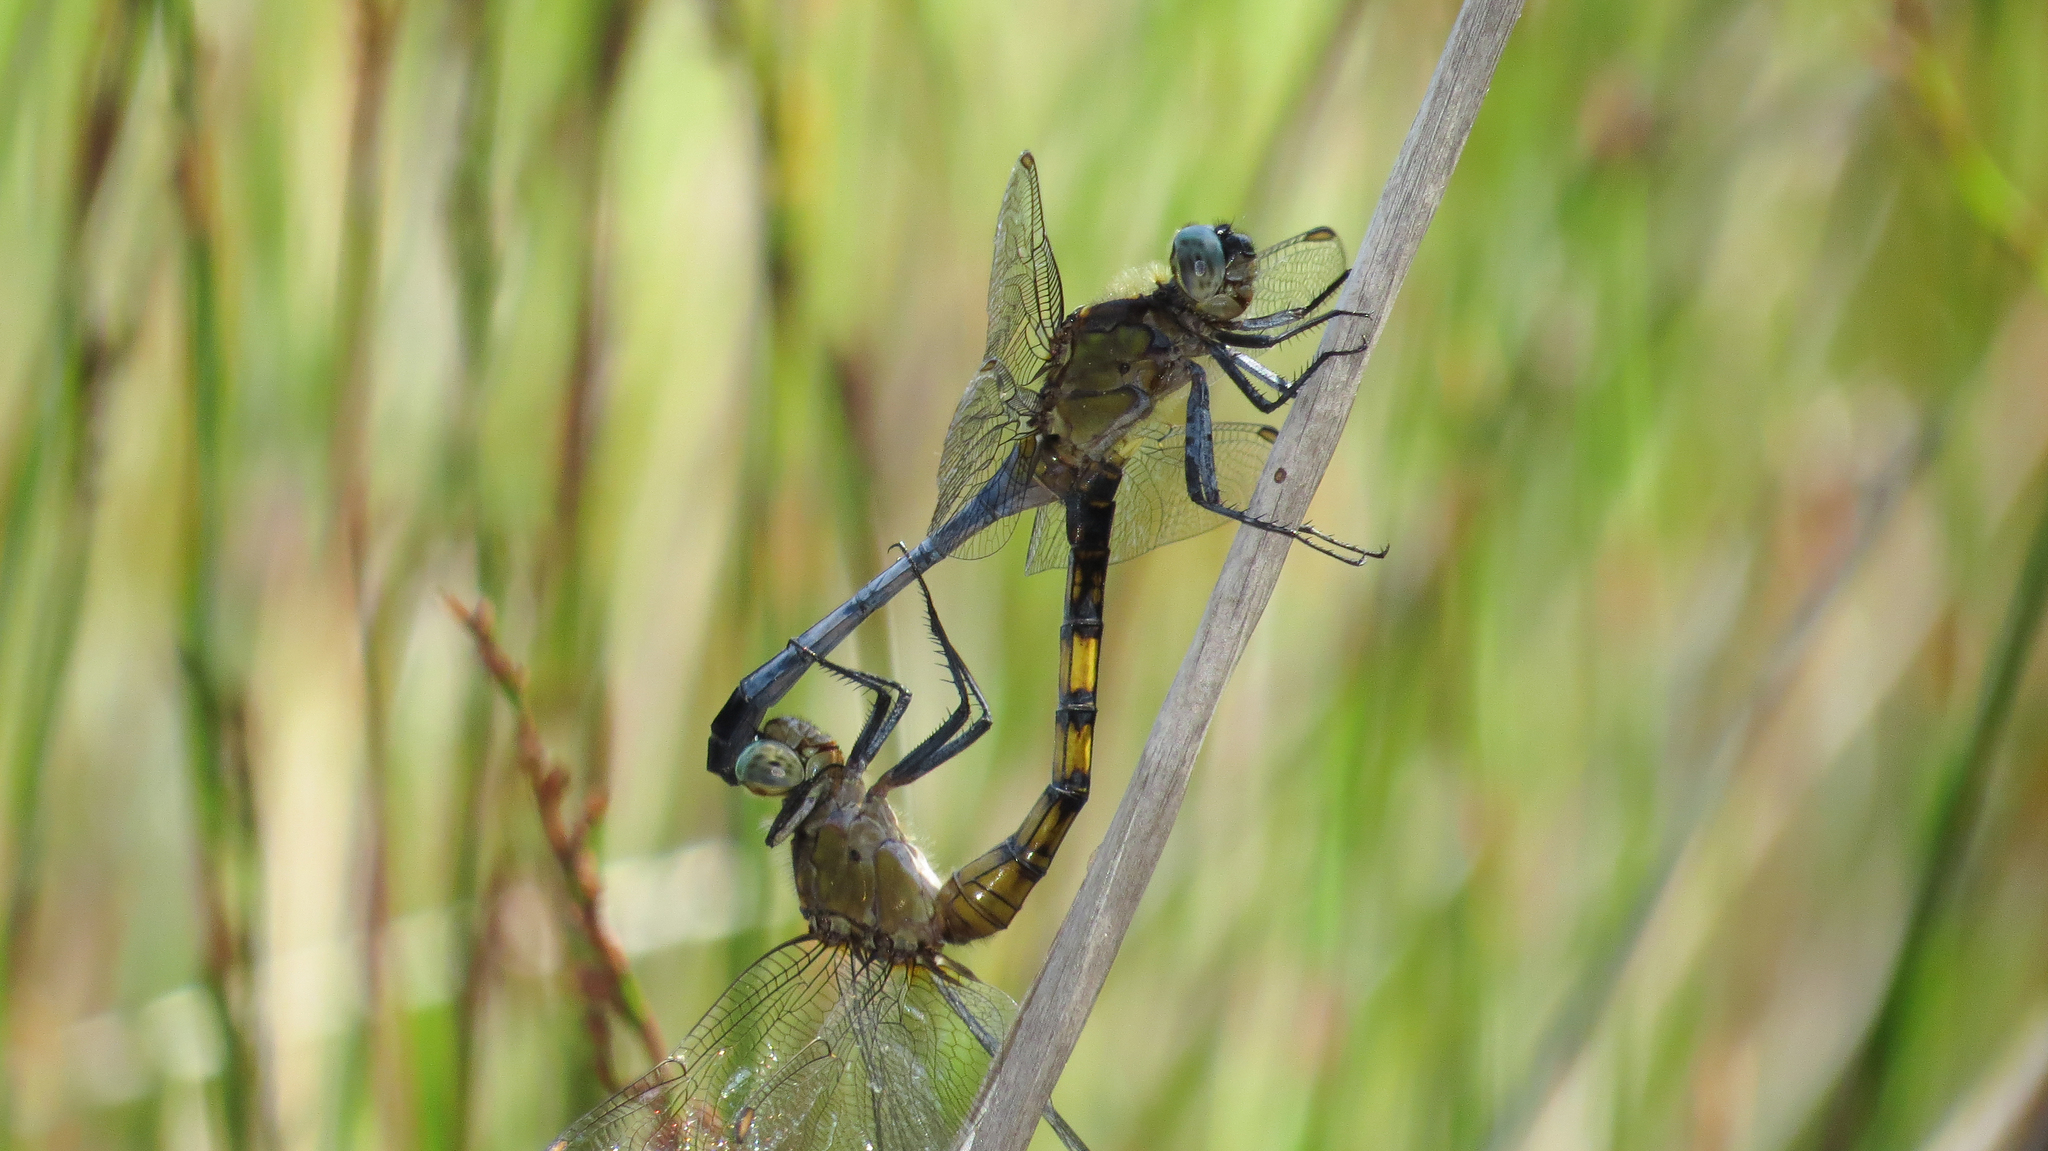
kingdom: Animalia
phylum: Arthropoda
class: Insecta
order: Odonata
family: Libellulidae
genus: Orthetrum
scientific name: Orthetrum boumiera
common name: Brownwater skimmer
